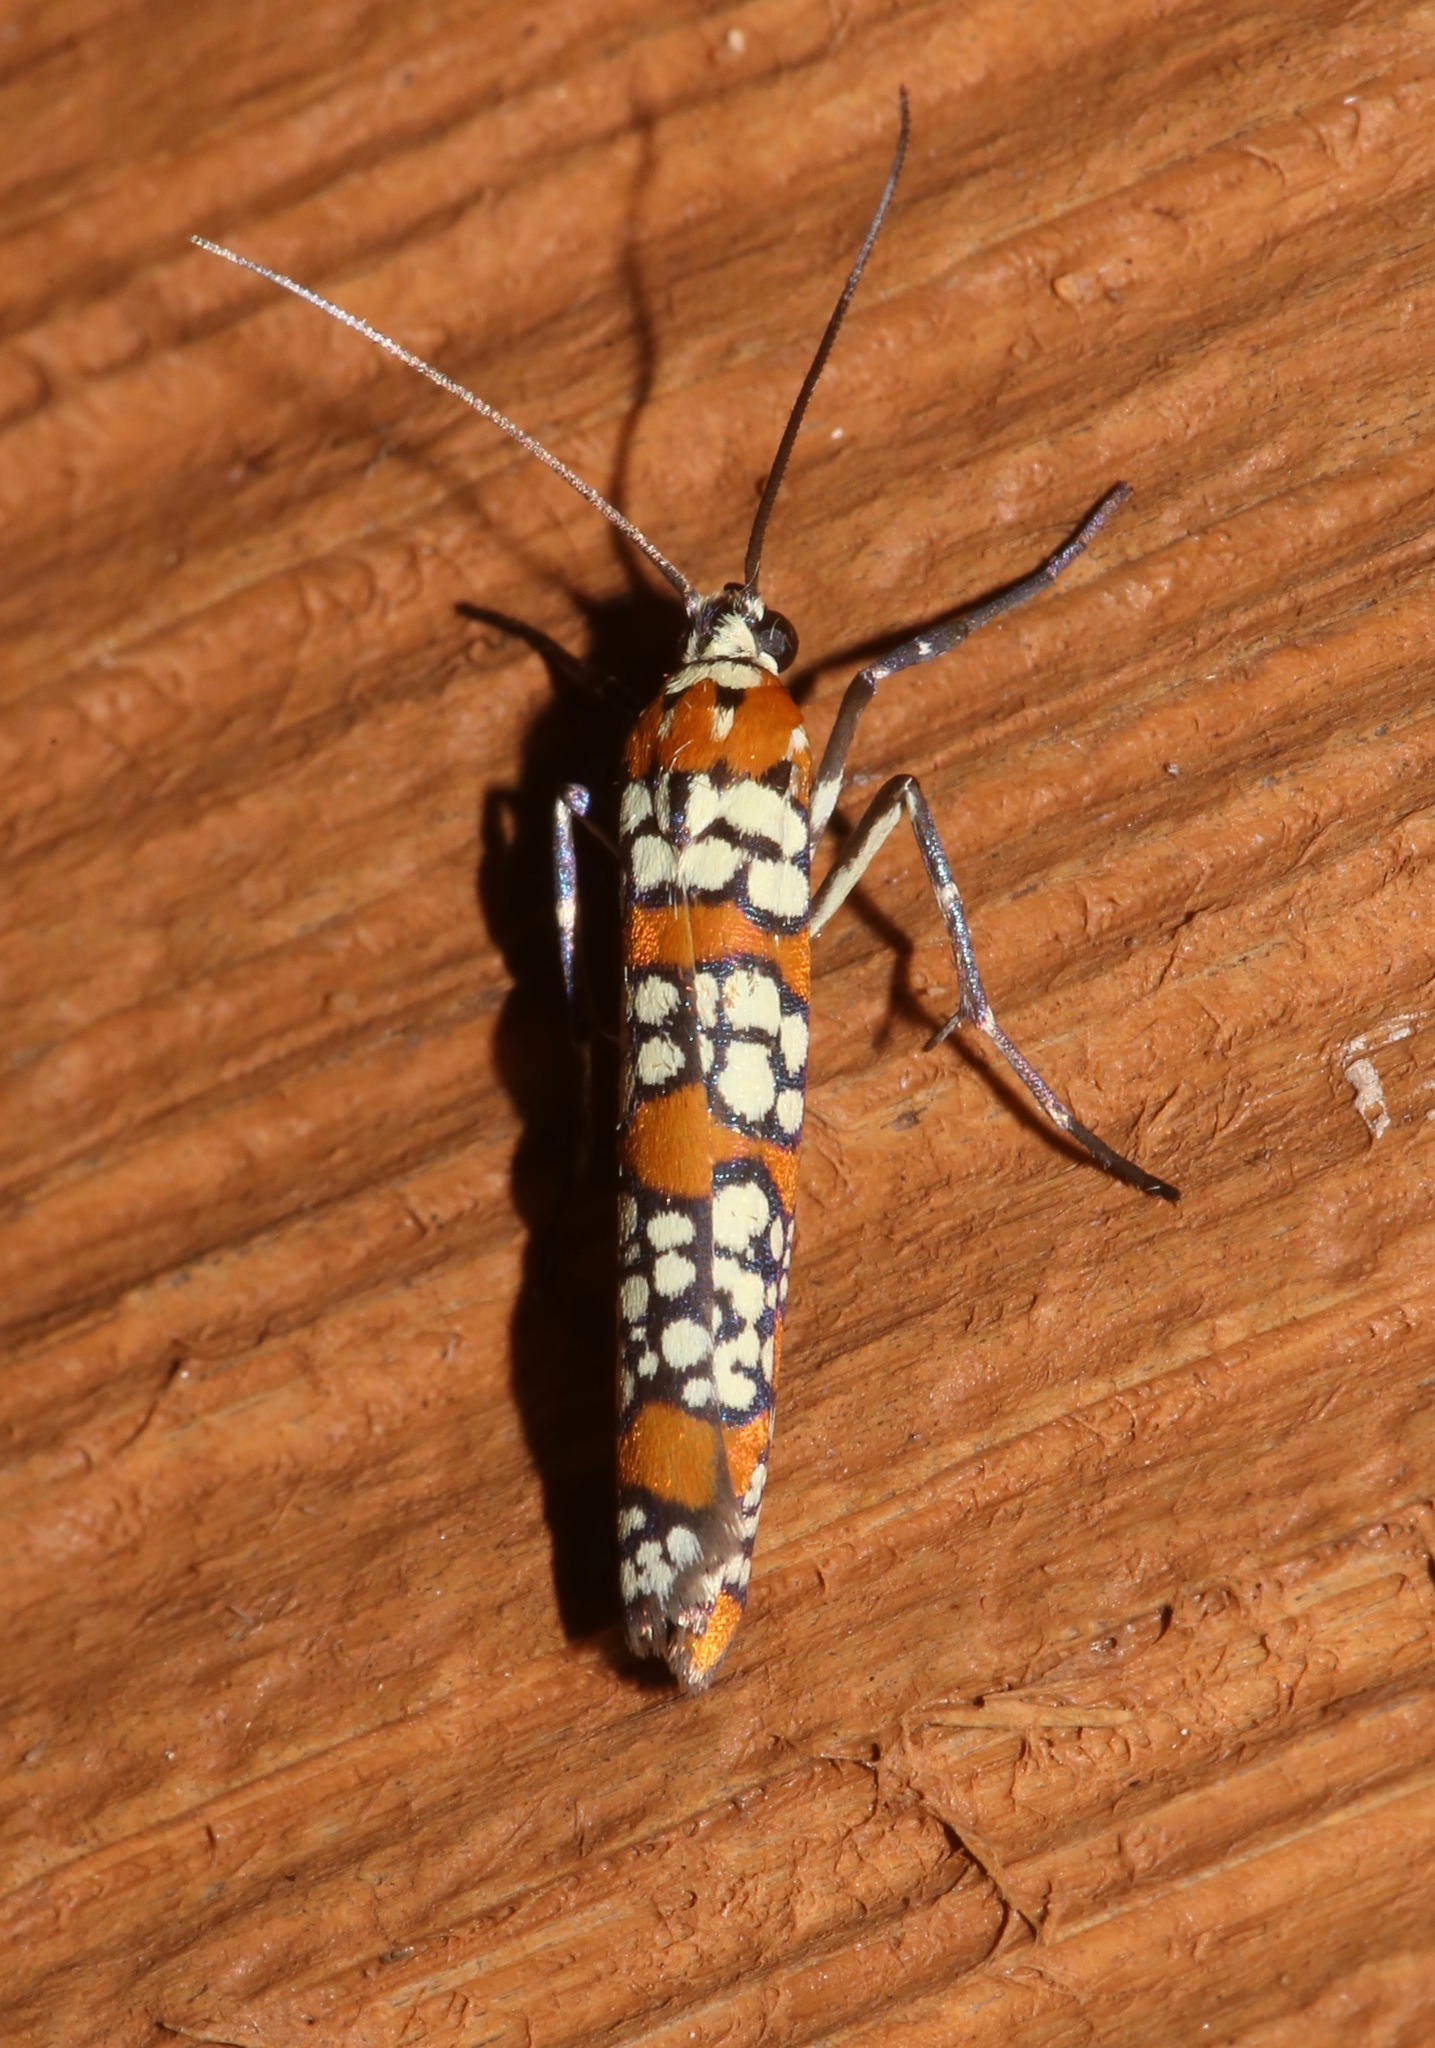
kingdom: Animalia
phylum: Arthropoda
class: Insecta
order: Lepidoptera
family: Attevidae
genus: Atteva
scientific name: Atteva punctella
